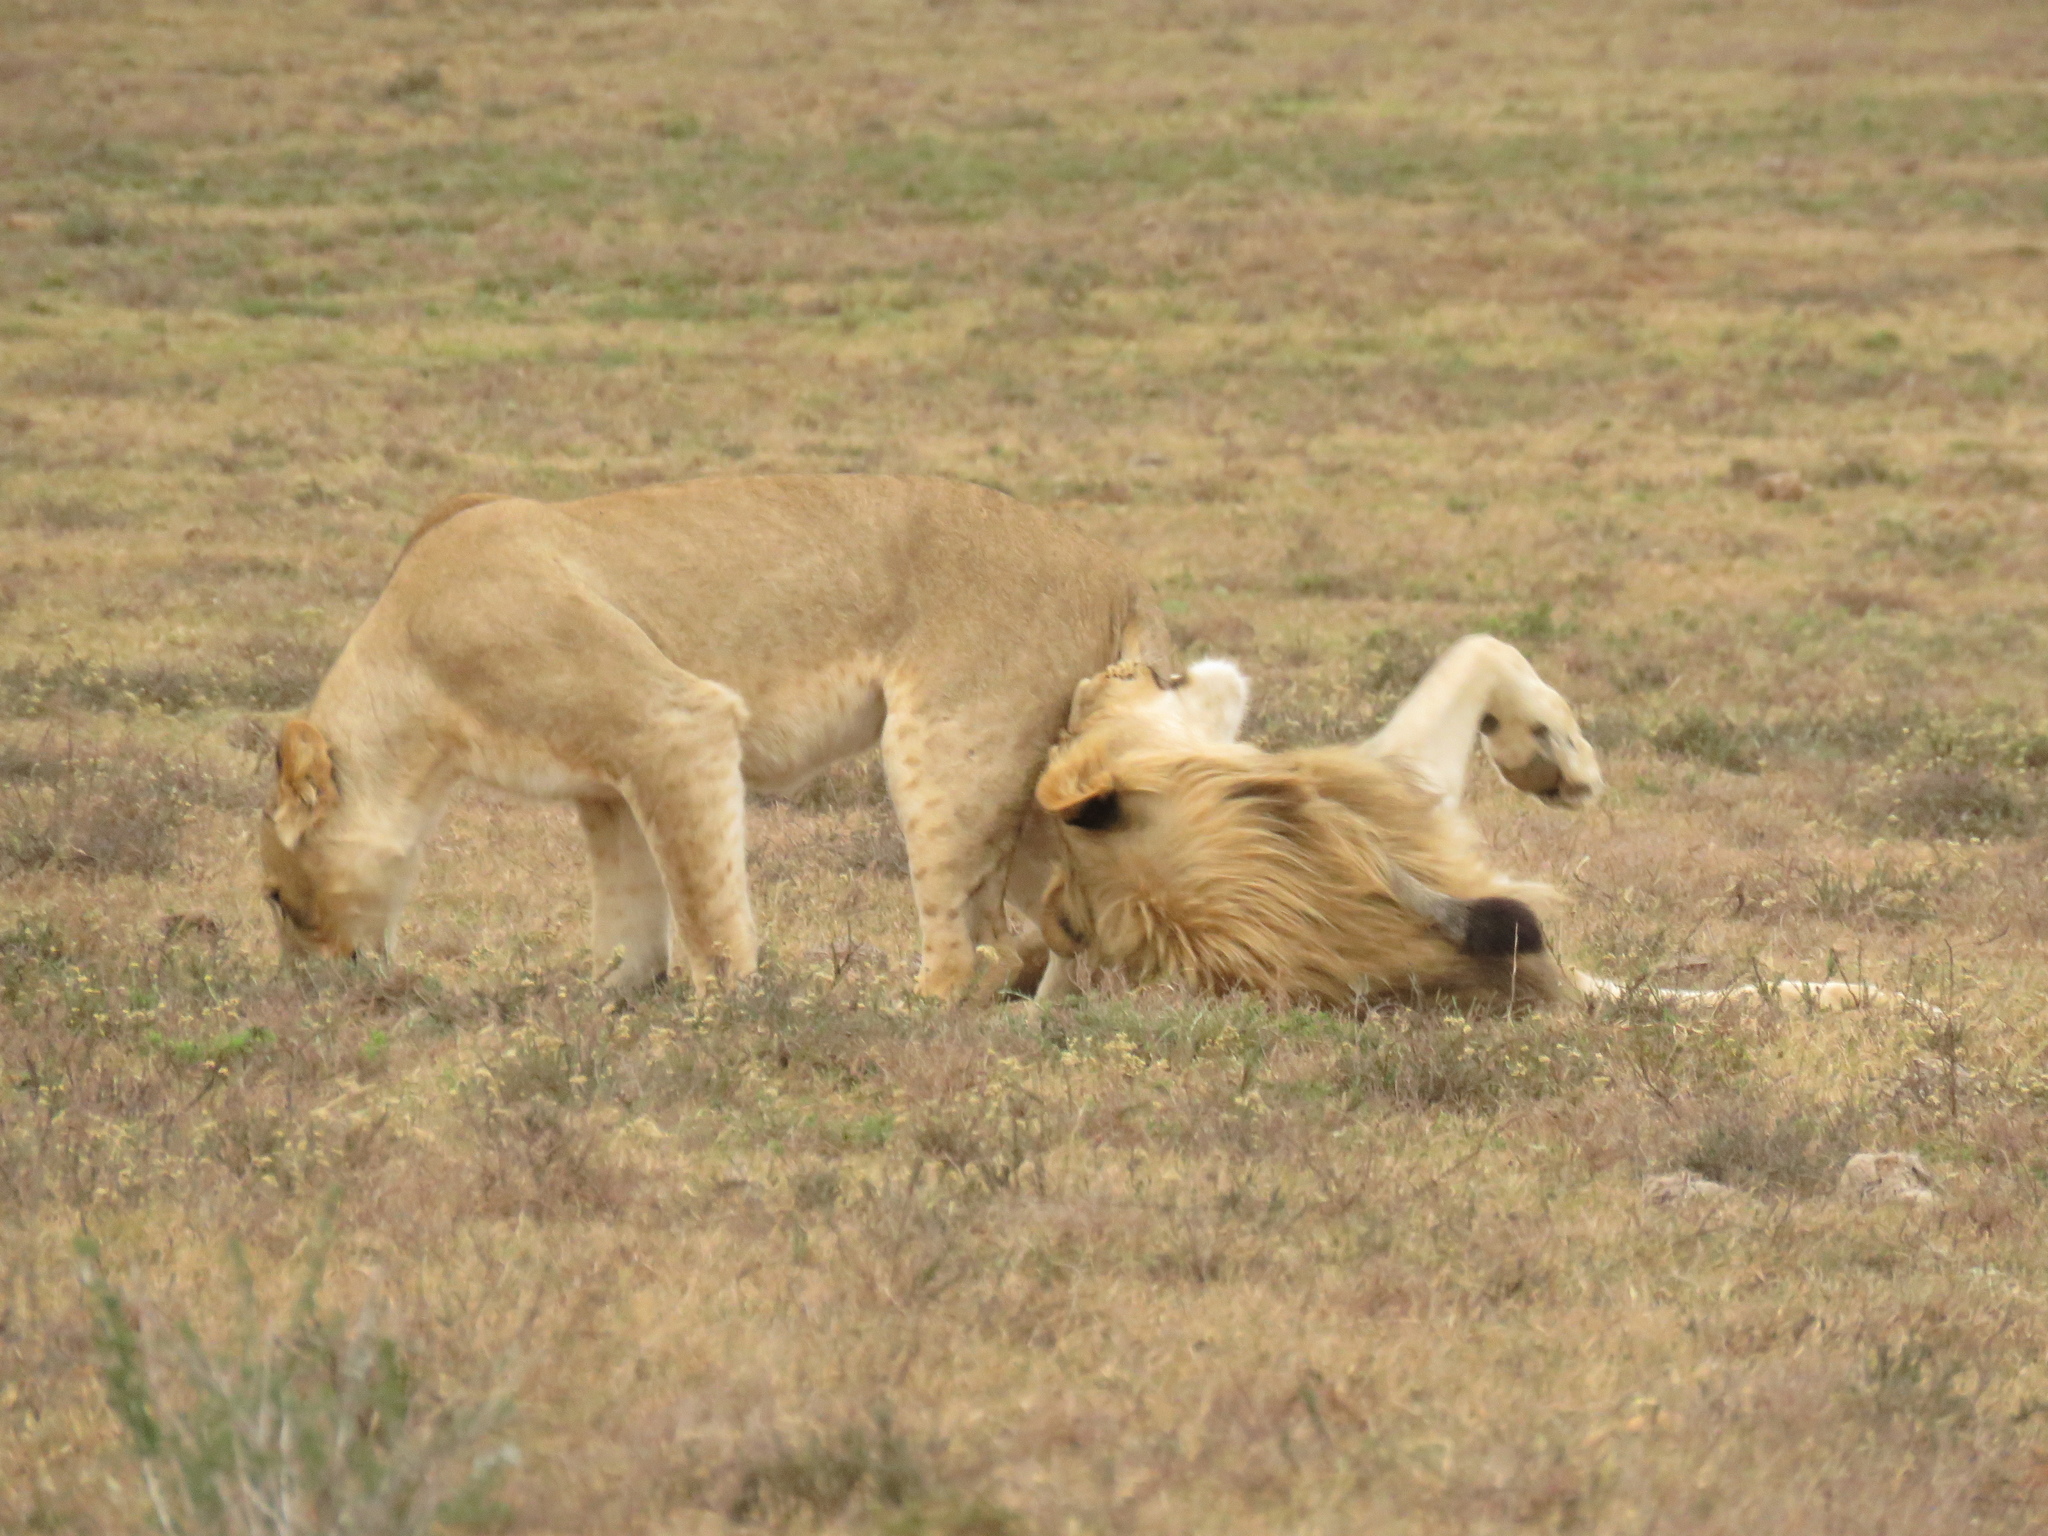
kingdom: Animalia
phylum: Chordata
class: Mammalia
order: Carnivora
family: Felidae
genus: Panthera
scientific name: Panthera leo
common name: Lion
